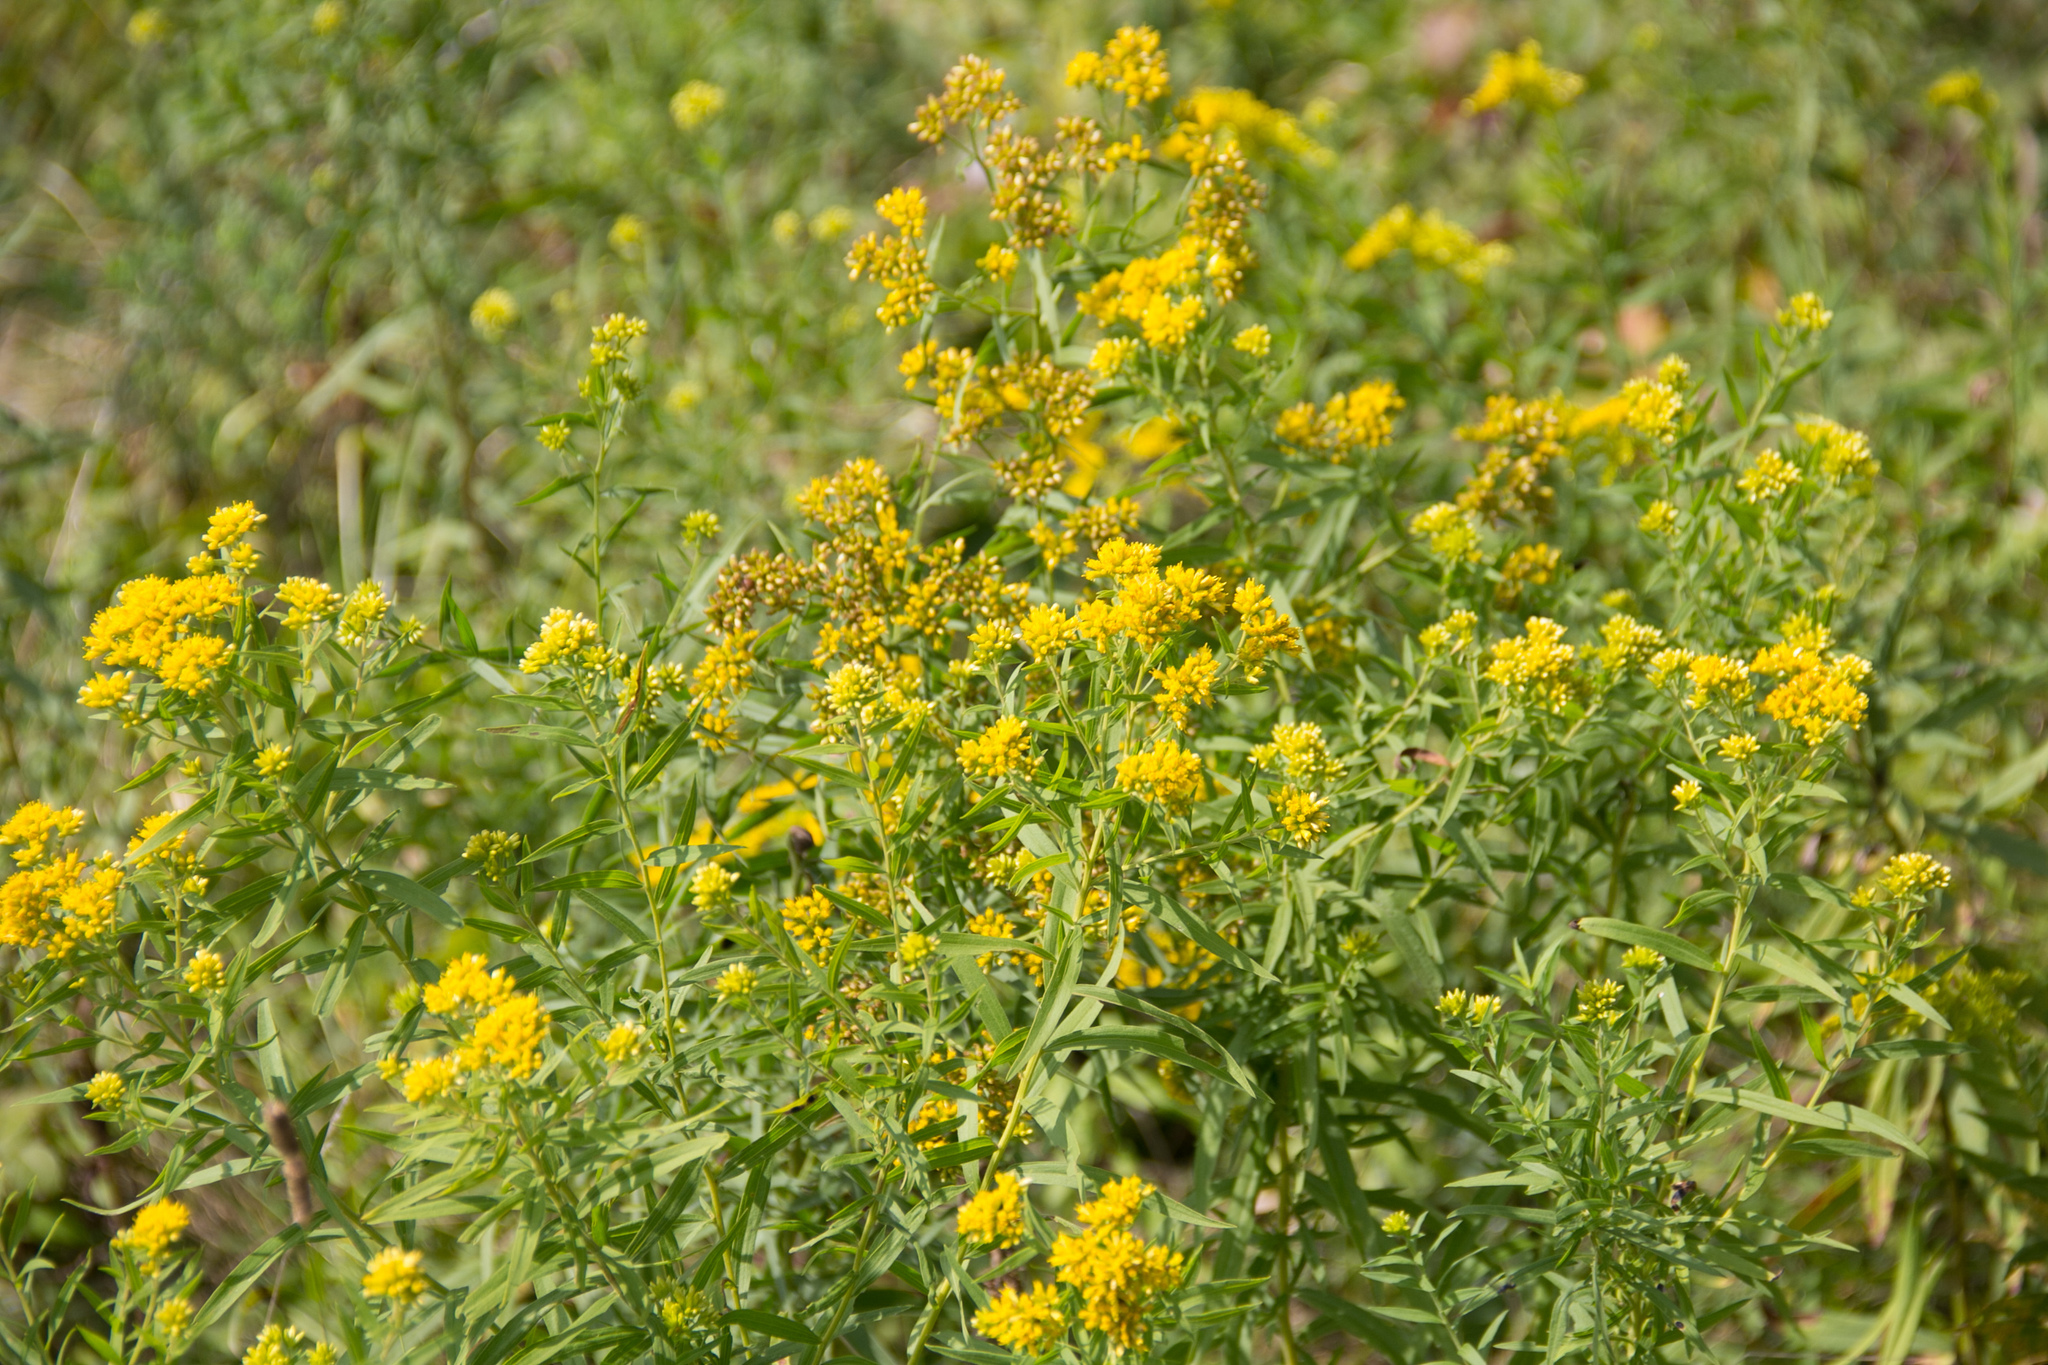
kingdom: Plantae
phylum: Tracheophyta
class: Magnoliopsida
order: Asterales
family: Asteraceae
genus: Euthamia
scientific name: Euthamia graminifolia
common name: Common goldentop
